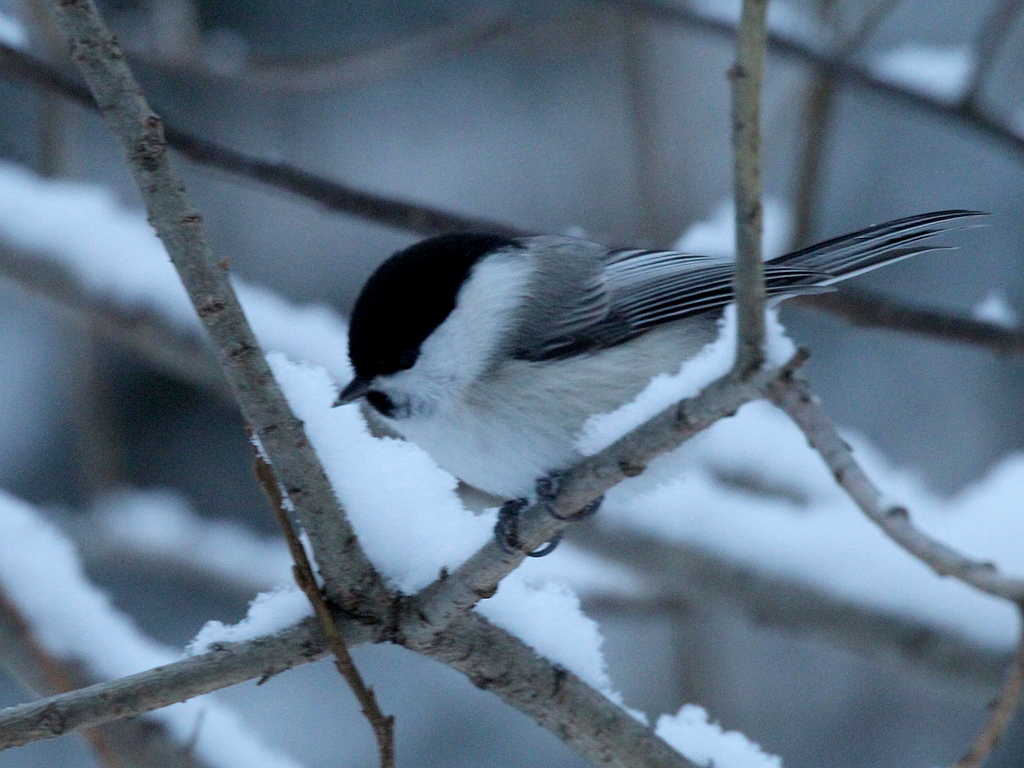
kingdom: Animalia
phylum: Chordata
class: Aves
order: Passeriformes
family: Paridae
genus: Poecile
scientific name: Poecile montanus
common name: Willow tit
